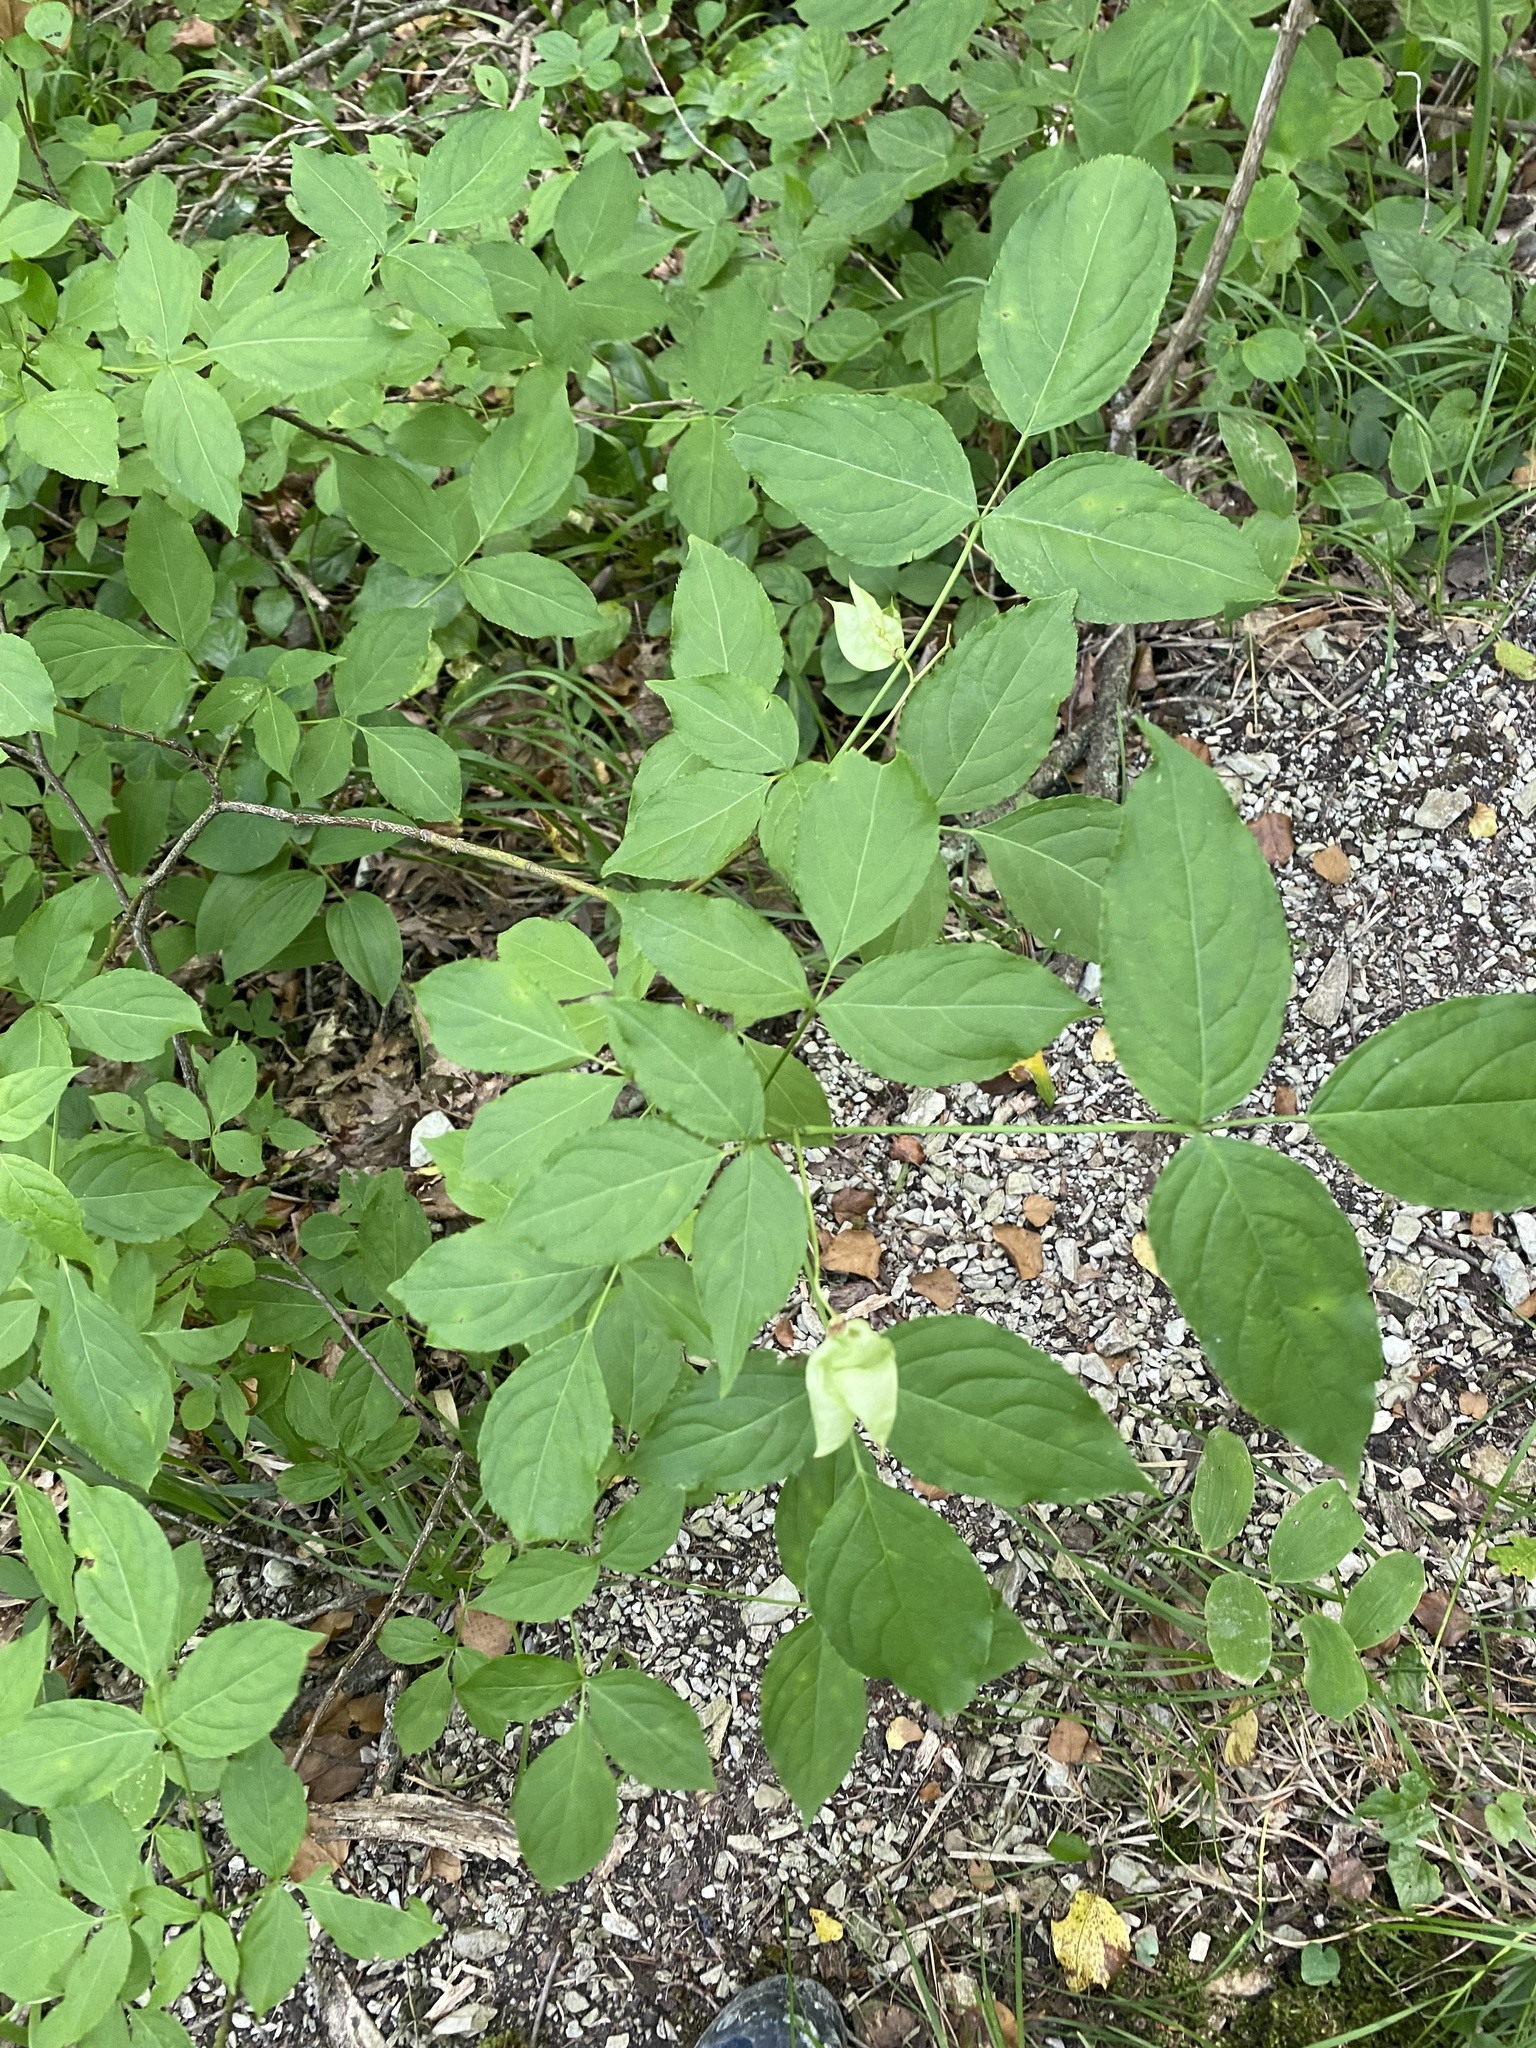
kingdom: Plantae
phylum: Tracheophyta
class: Magnoliopsida
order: Crossosomatales
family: Staphyleaceae
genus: Staphylea
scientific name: Staphylea colchica
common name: Caucasian bladdernut
